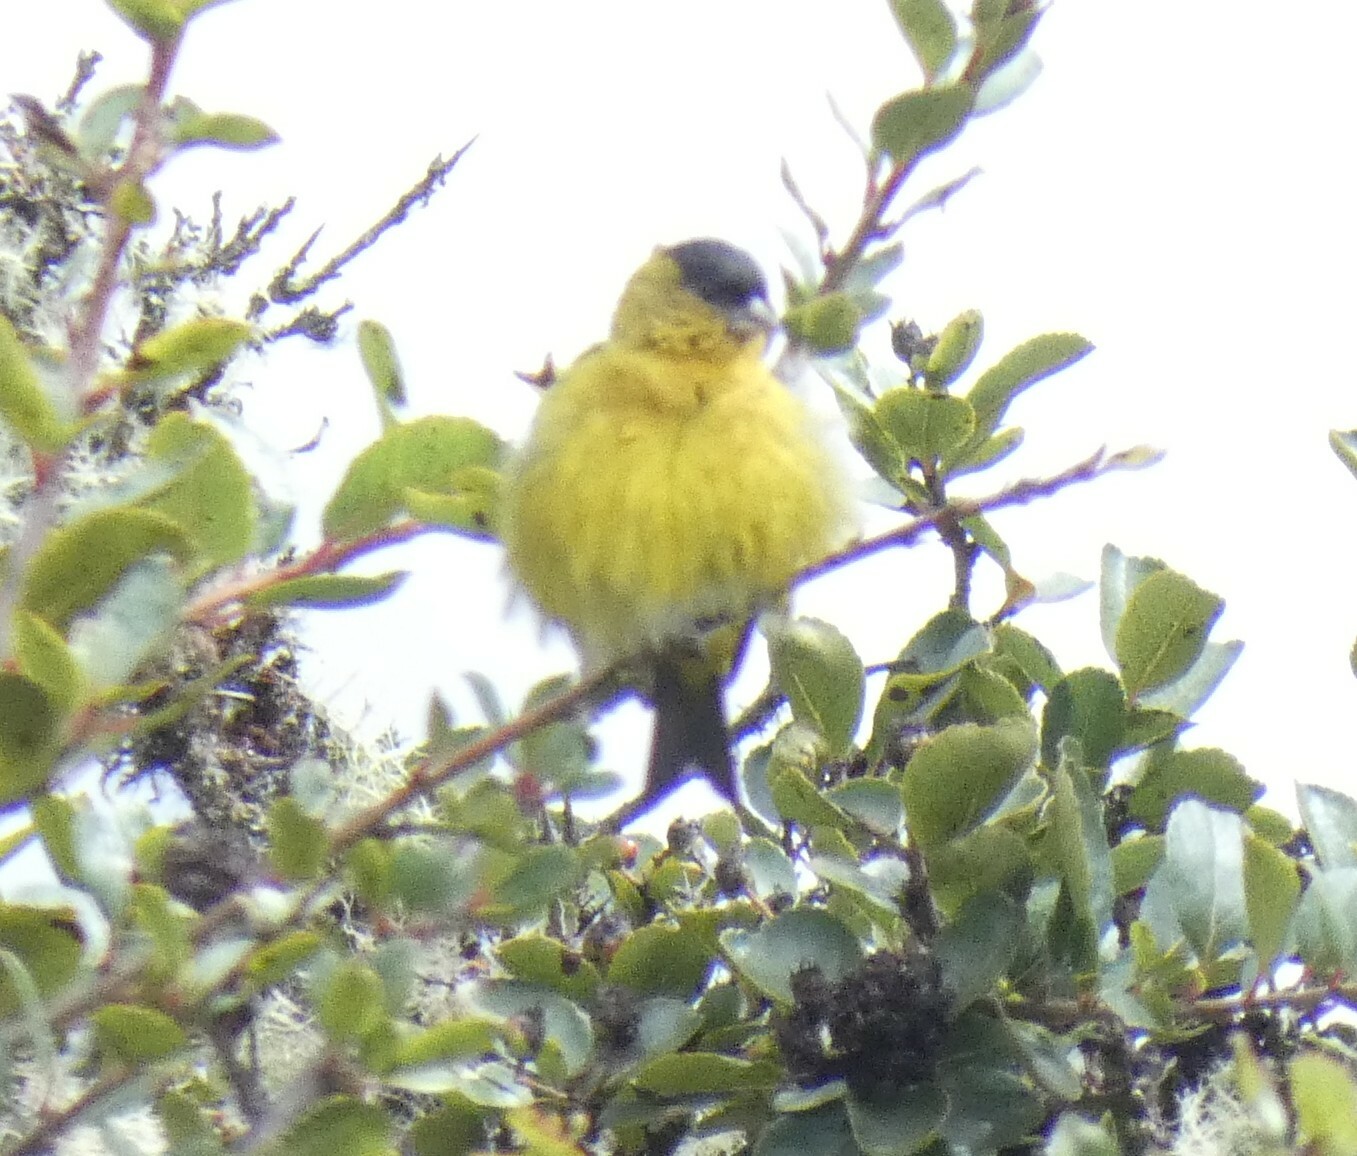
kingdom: Animalia
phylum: Chordata
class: Aves
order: Passeriformes
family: Fringillidae
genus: Spinus
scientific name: Spinus spinescens
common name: Andean siskin
